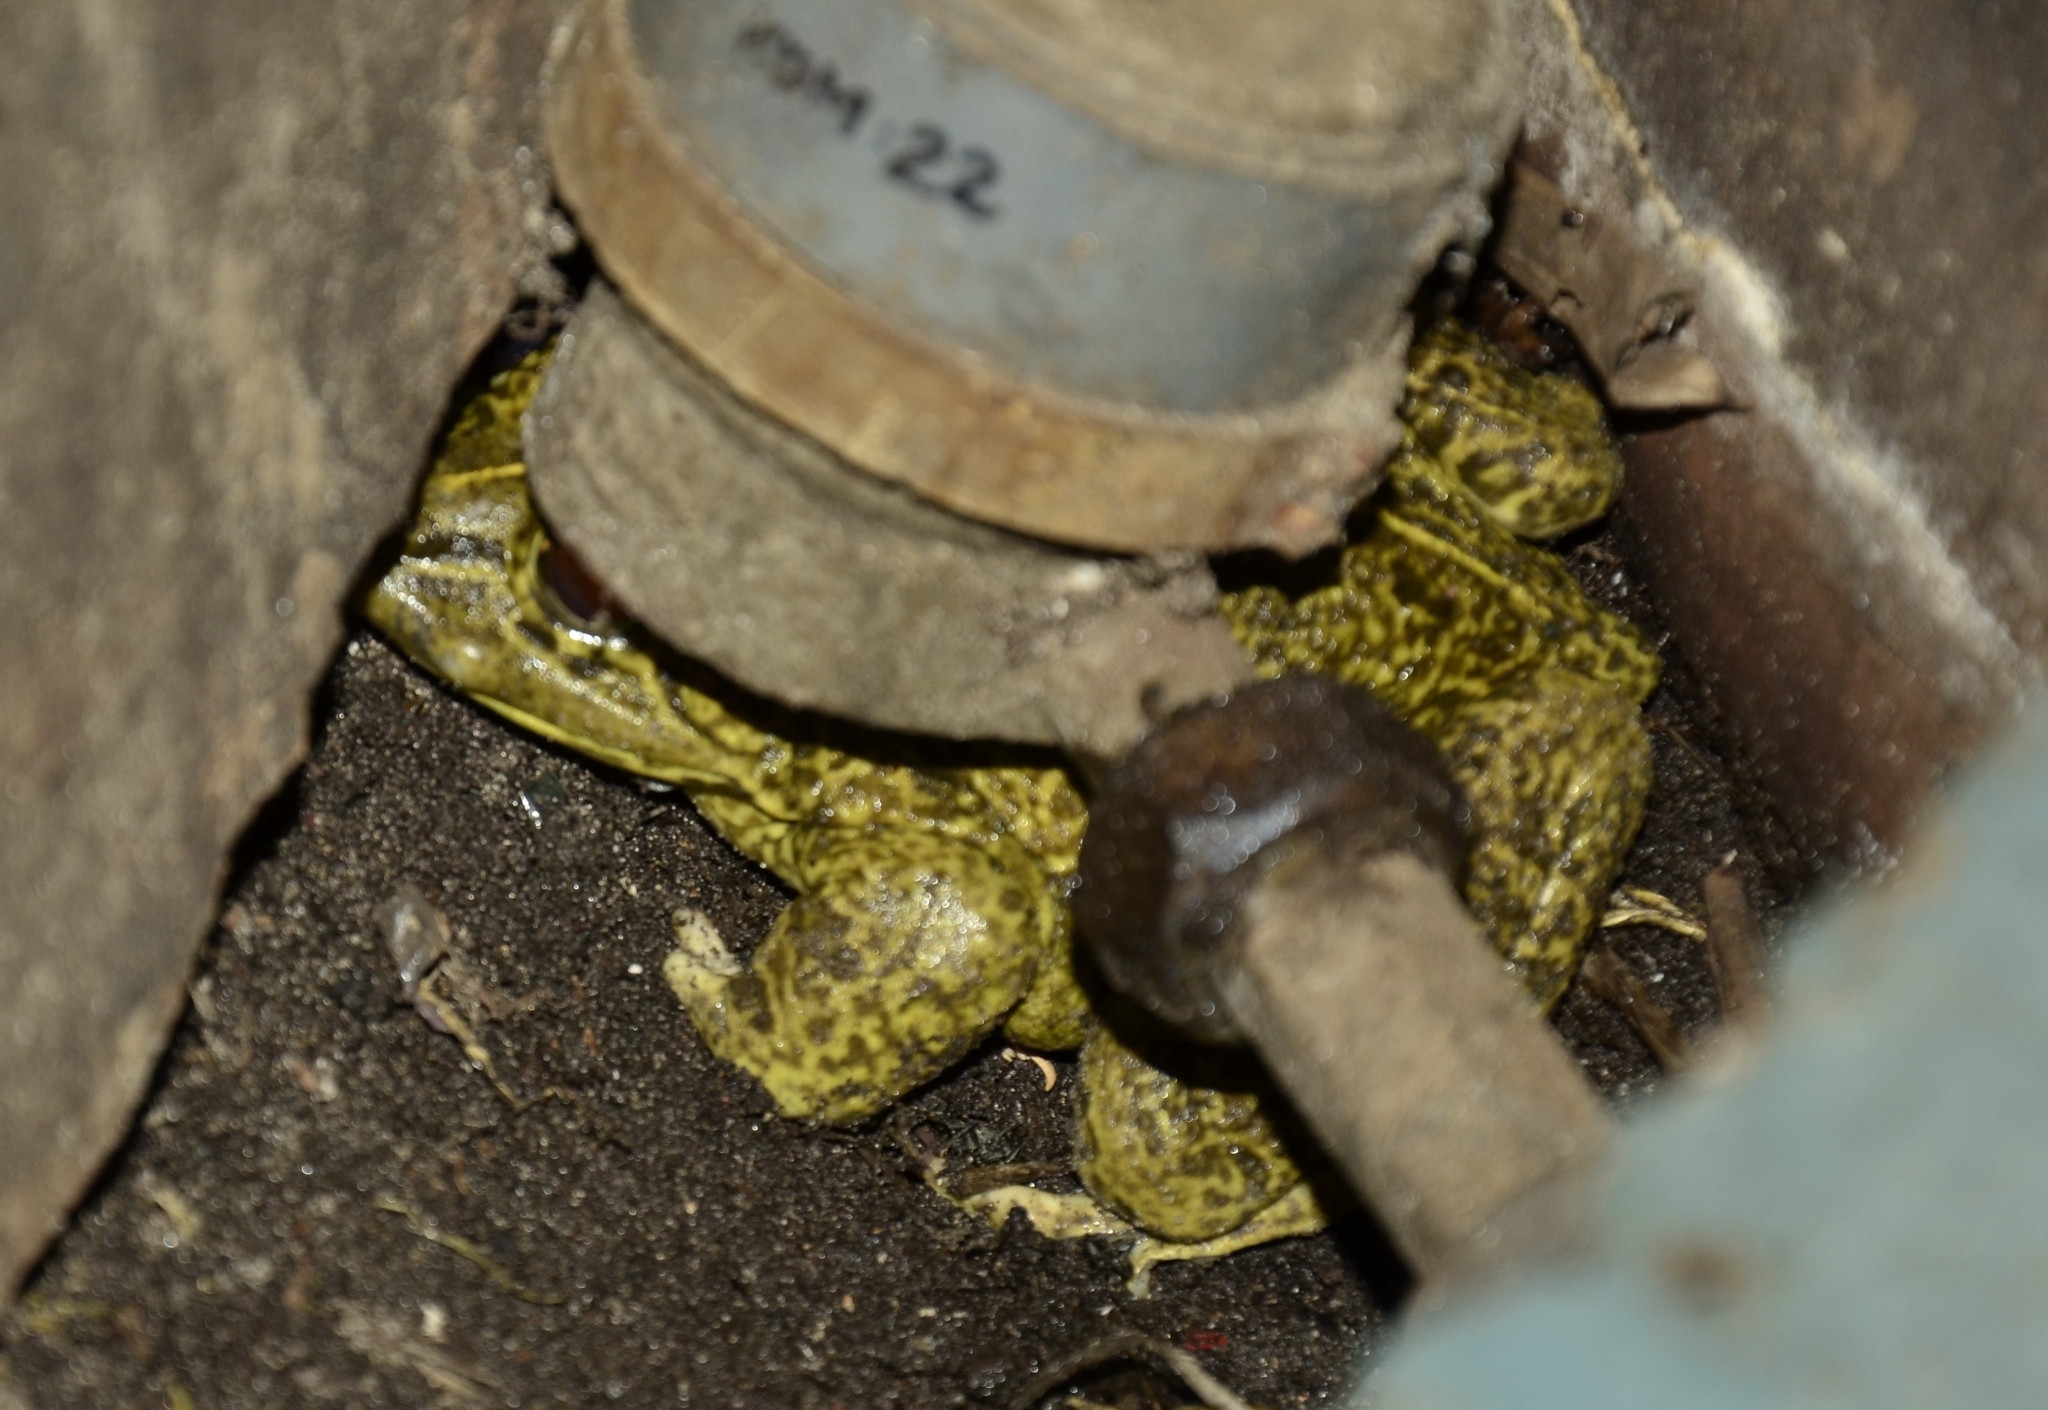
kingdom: Animalia
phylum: Chordata
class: Amphibia
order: Anura
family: Dicroglossidae
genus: Hoplobatrachus
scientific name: Hoplobatrachus tigerinus
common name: Indian bullfrog
